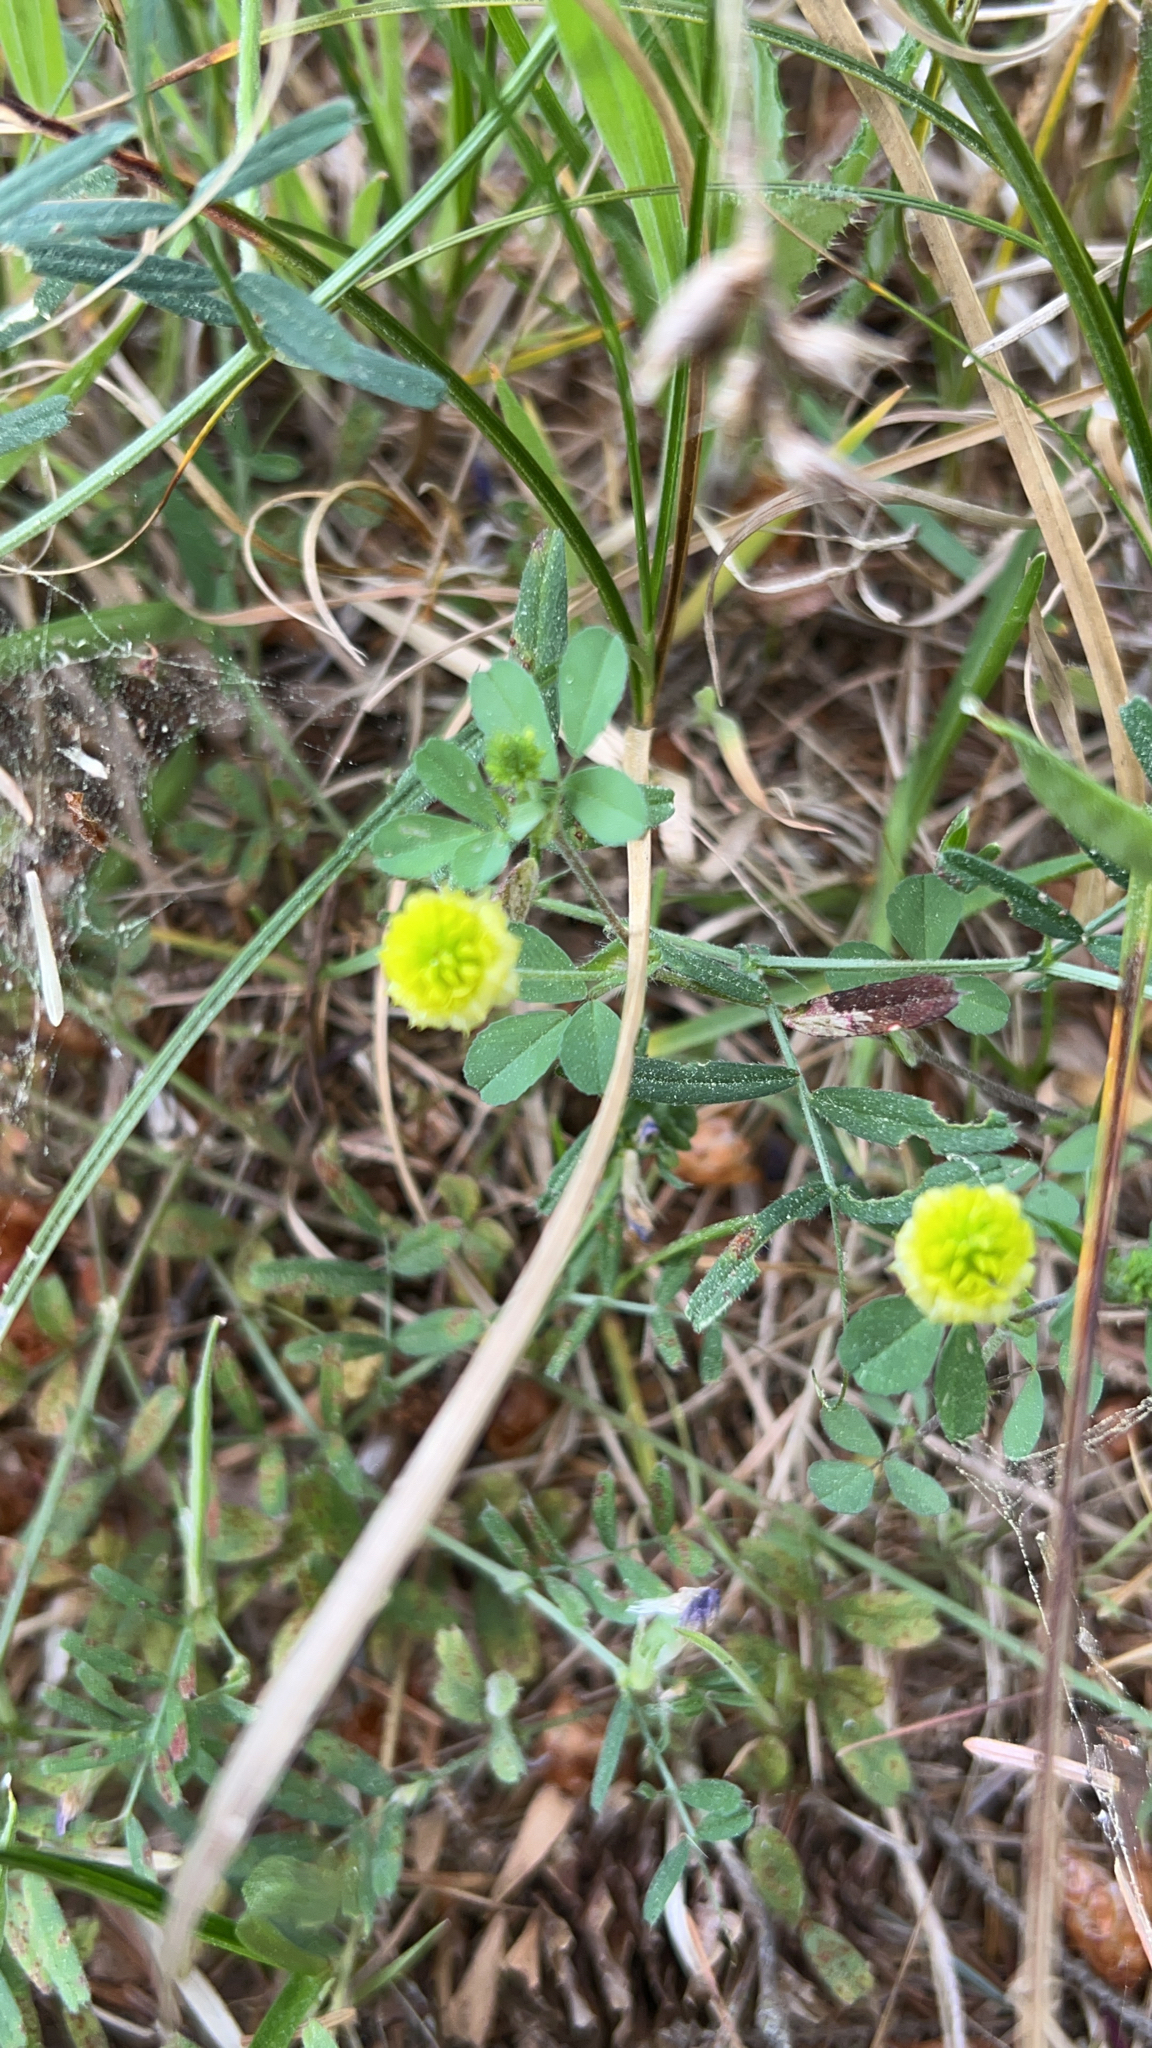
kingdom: Plantae
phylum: Tracheophyta
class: Magnoliopsida
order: Fabales
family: Fabaceae
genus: Trifolium
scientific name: Trifolium campestre
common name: Field clover
